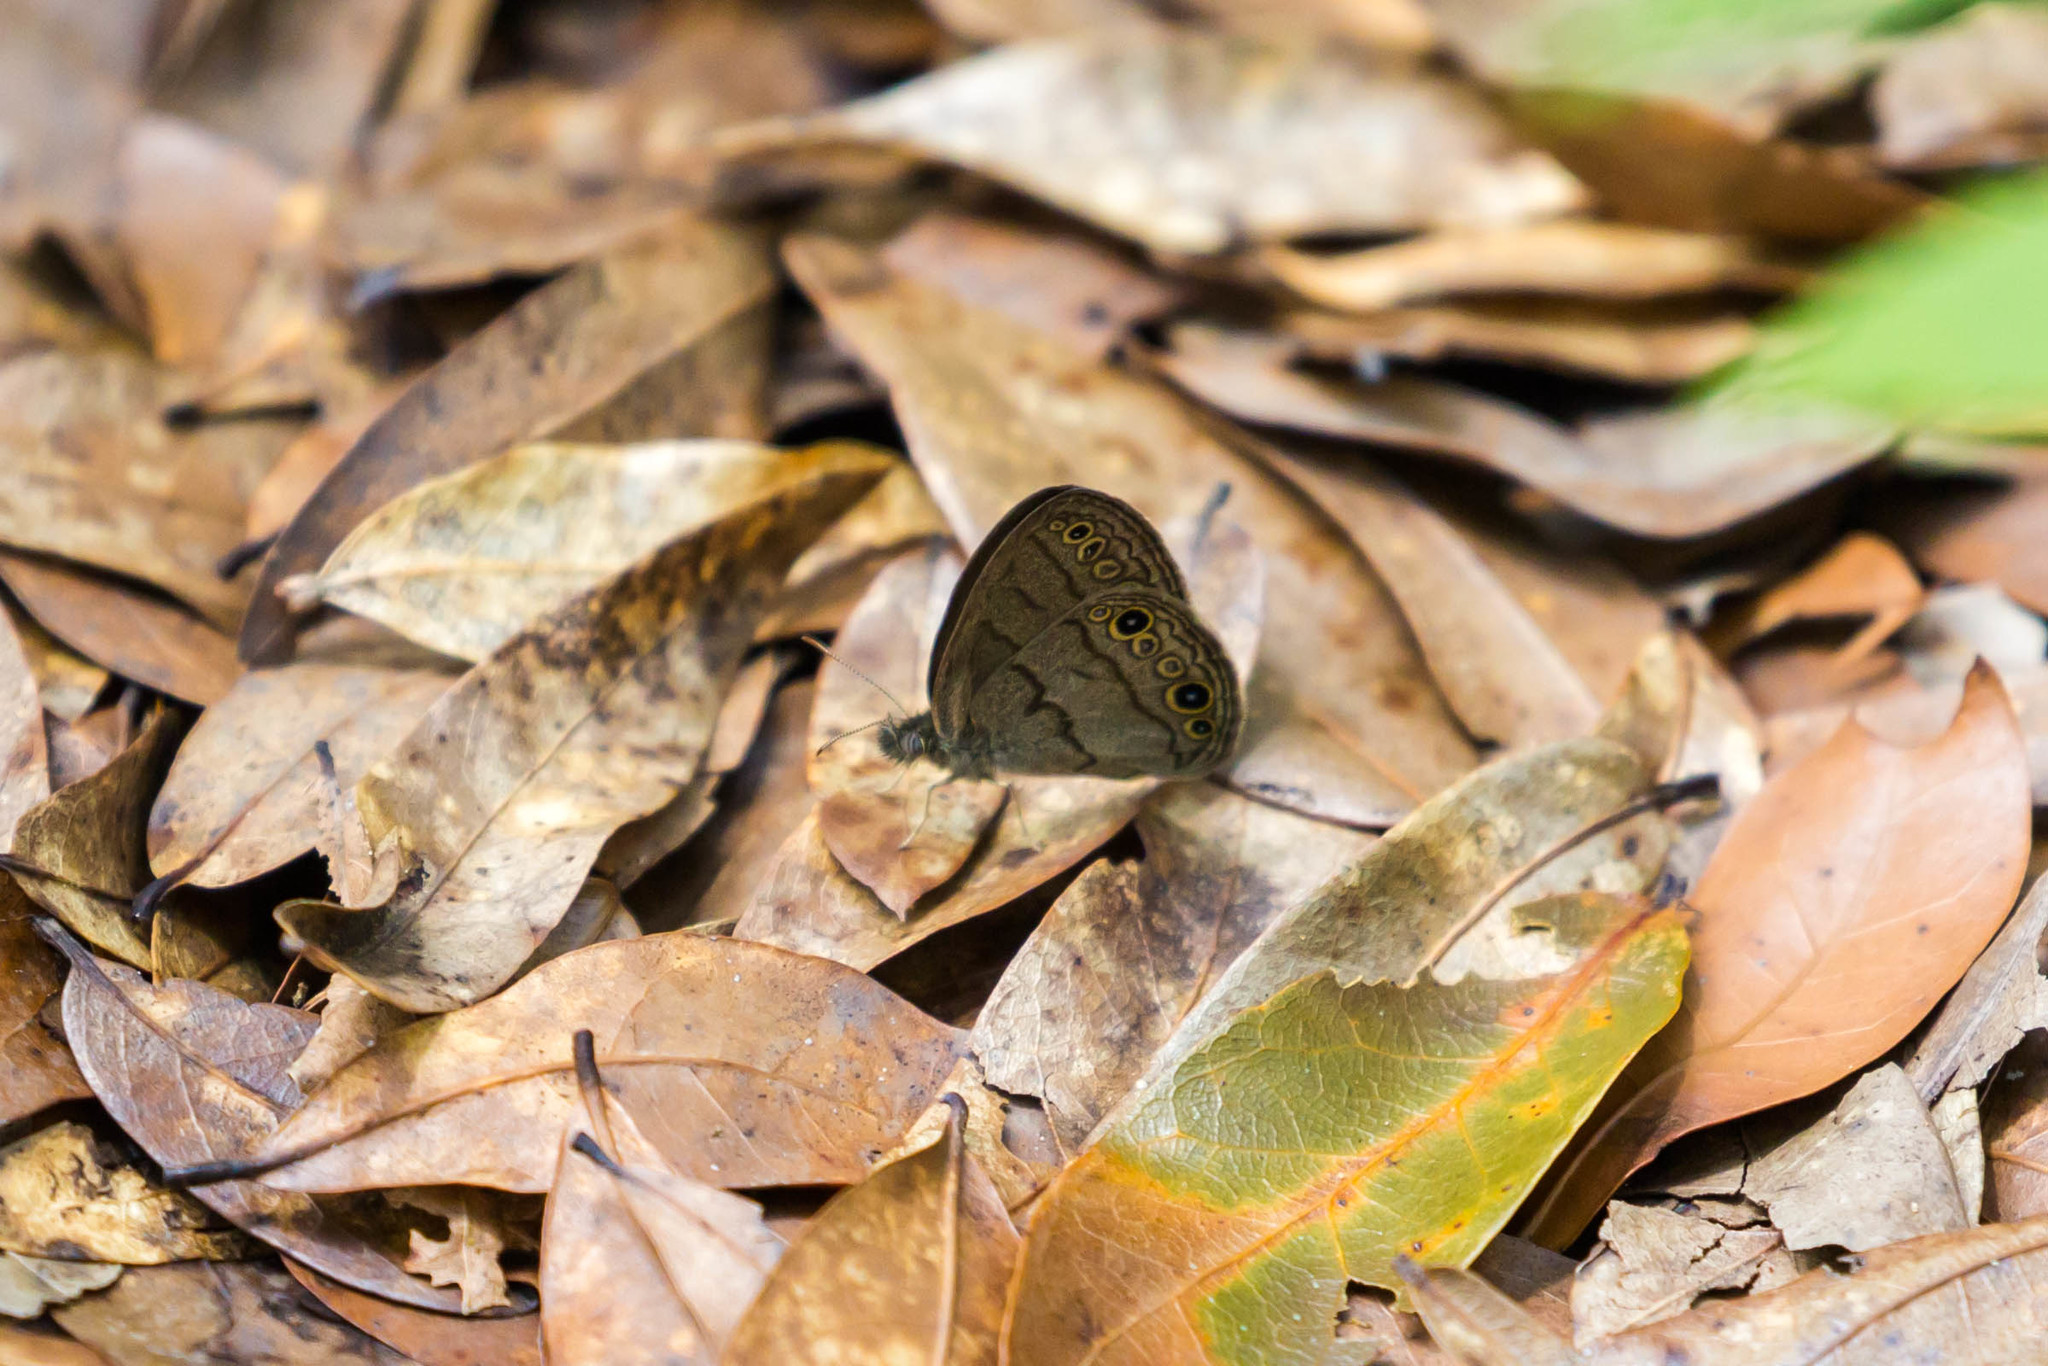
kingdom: Animalia
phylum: Arthropoda
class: Insecta
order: Lepidoptera
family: Nymphalidae
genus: Hermeuptychia
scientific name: Hermeuptychia hermes
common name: Hermes satyr
